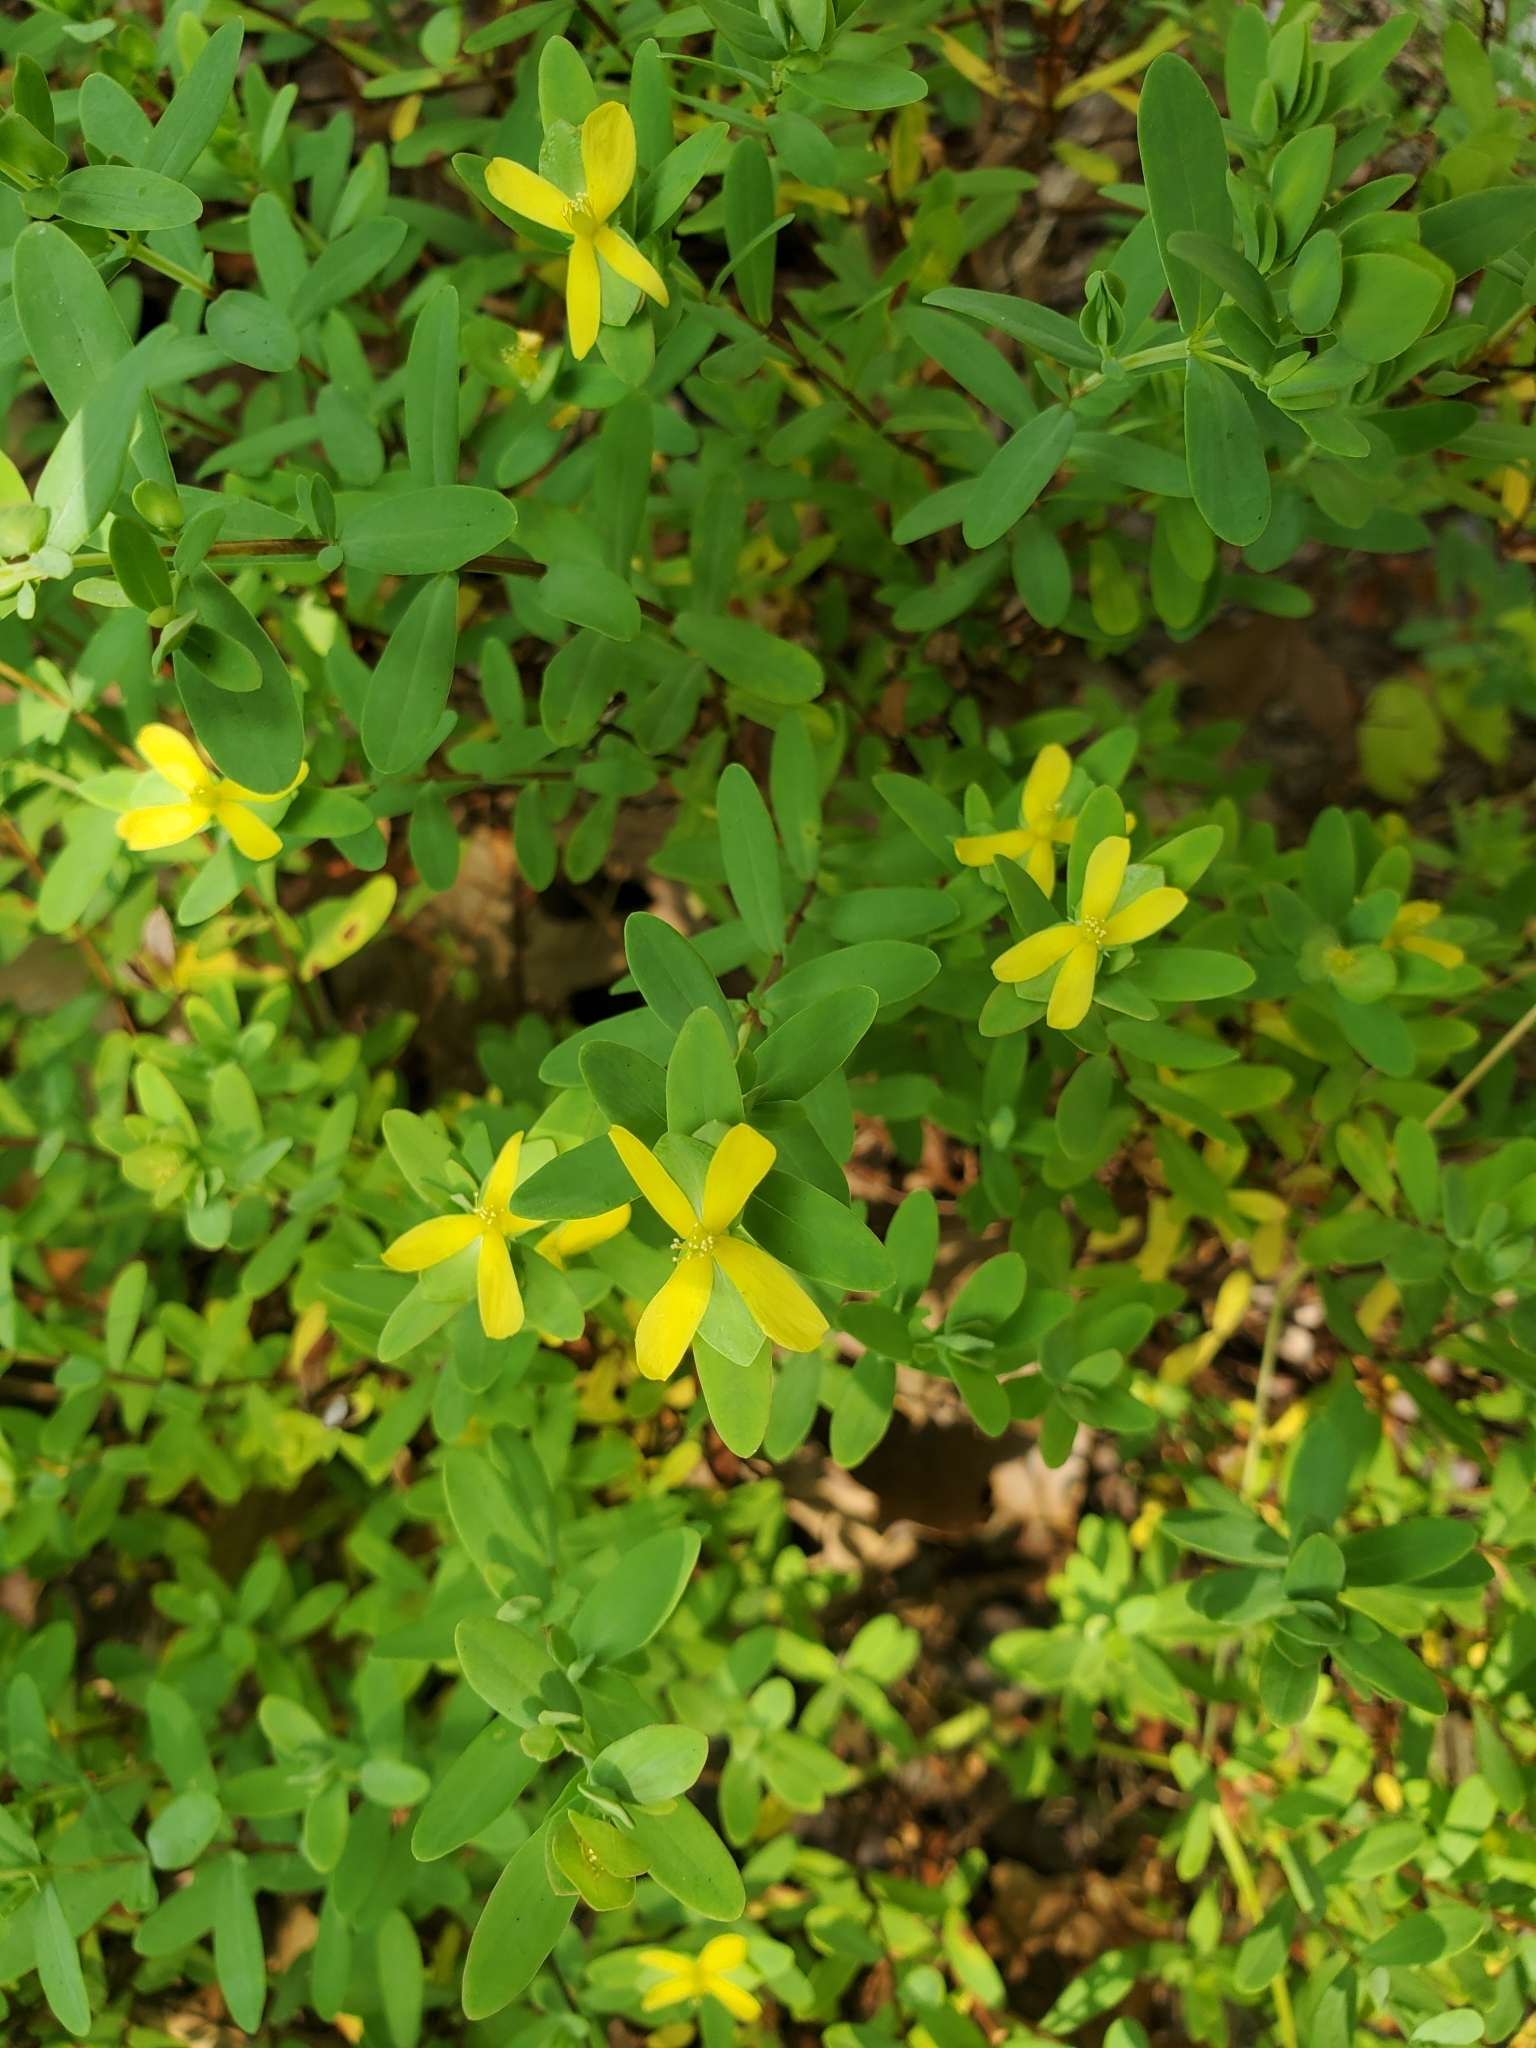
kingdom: Plantae
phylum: Tracheophyta
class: Magnoliopsida
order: Malpighiales
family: Hypericaceae
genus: Hypericum
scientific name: Hypericum hypericoides
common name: St. andrew's cross
